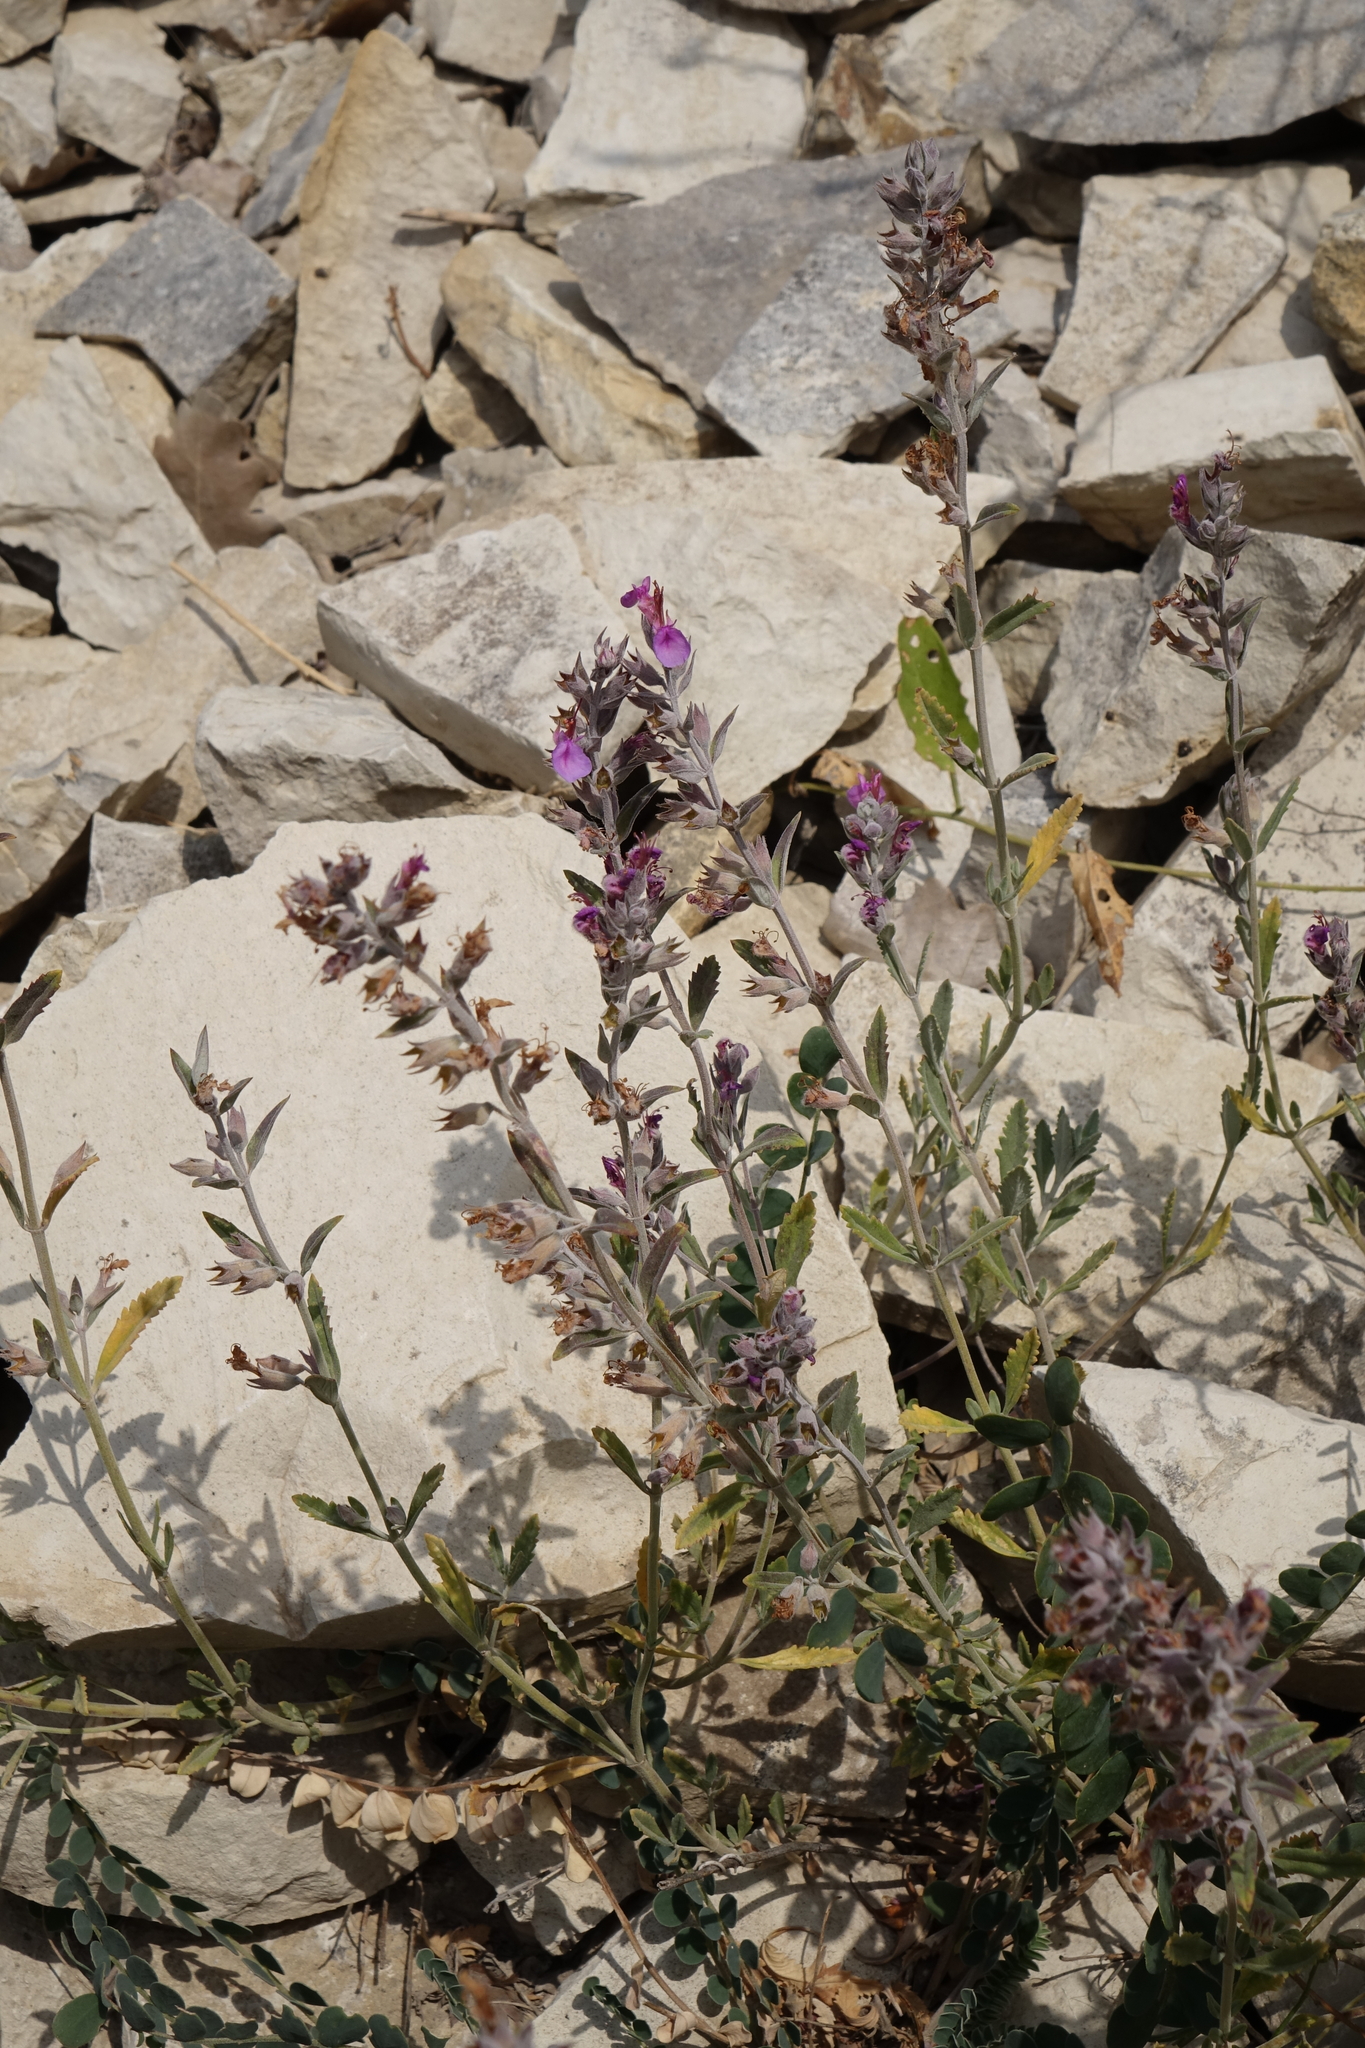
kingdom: Plantae
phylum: Tracheophyta
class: Magnoliopsida
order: Lamiales
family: Lamiaceae
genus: Teucrium
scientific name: Teucrium canum
